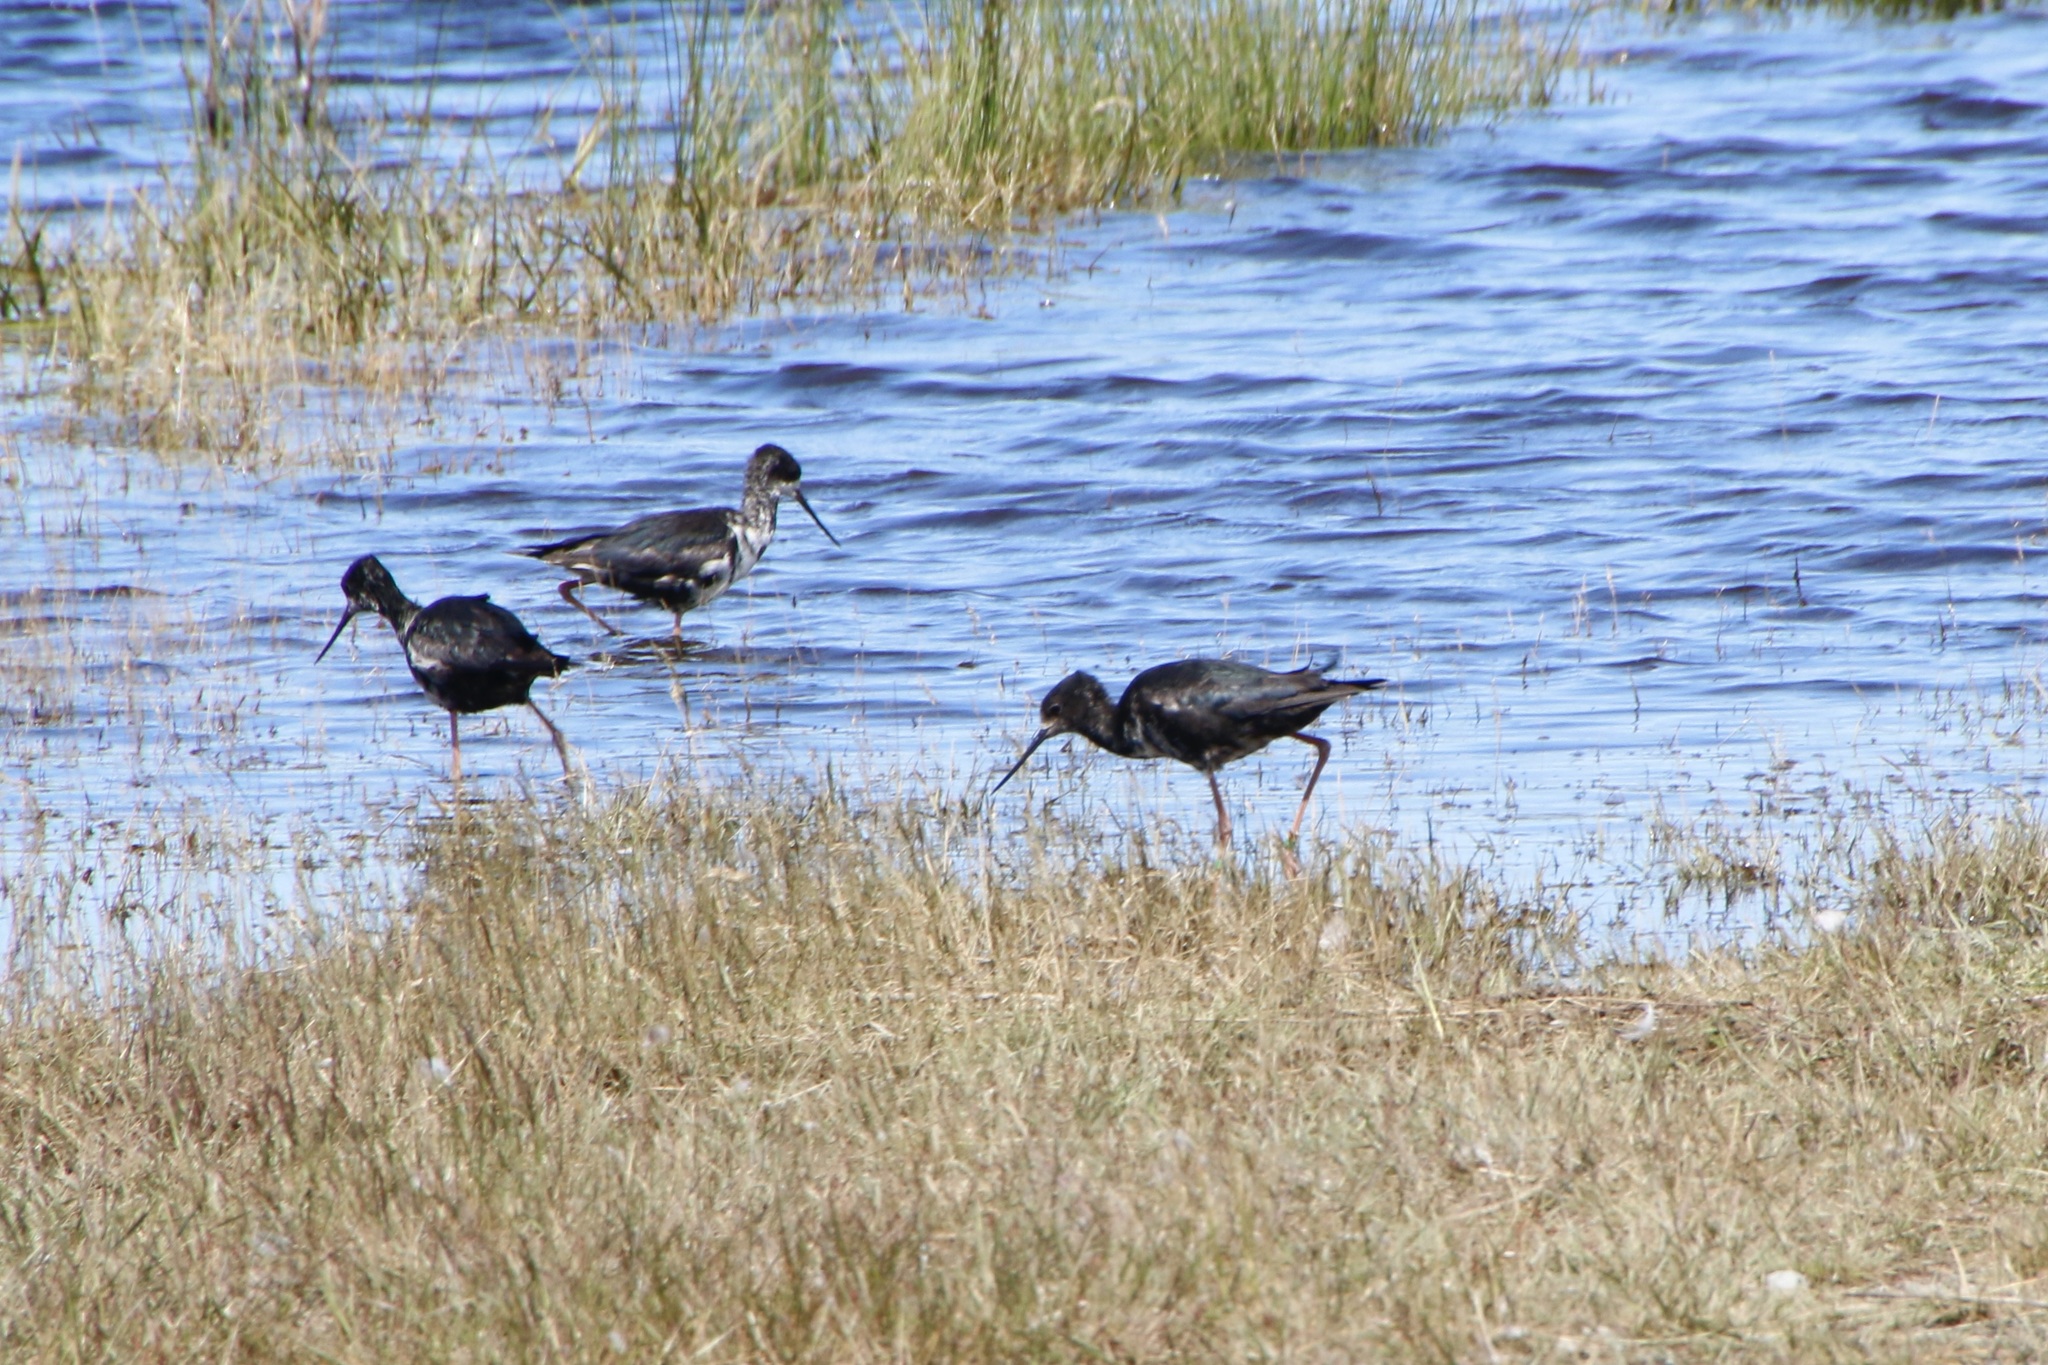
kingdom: Animalia
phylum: Chordata
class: Aves
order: Charadriiformes
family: Recurvirostridae
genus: Himantopus
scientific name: Himantopus novaezelandiae
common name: Black stilt
